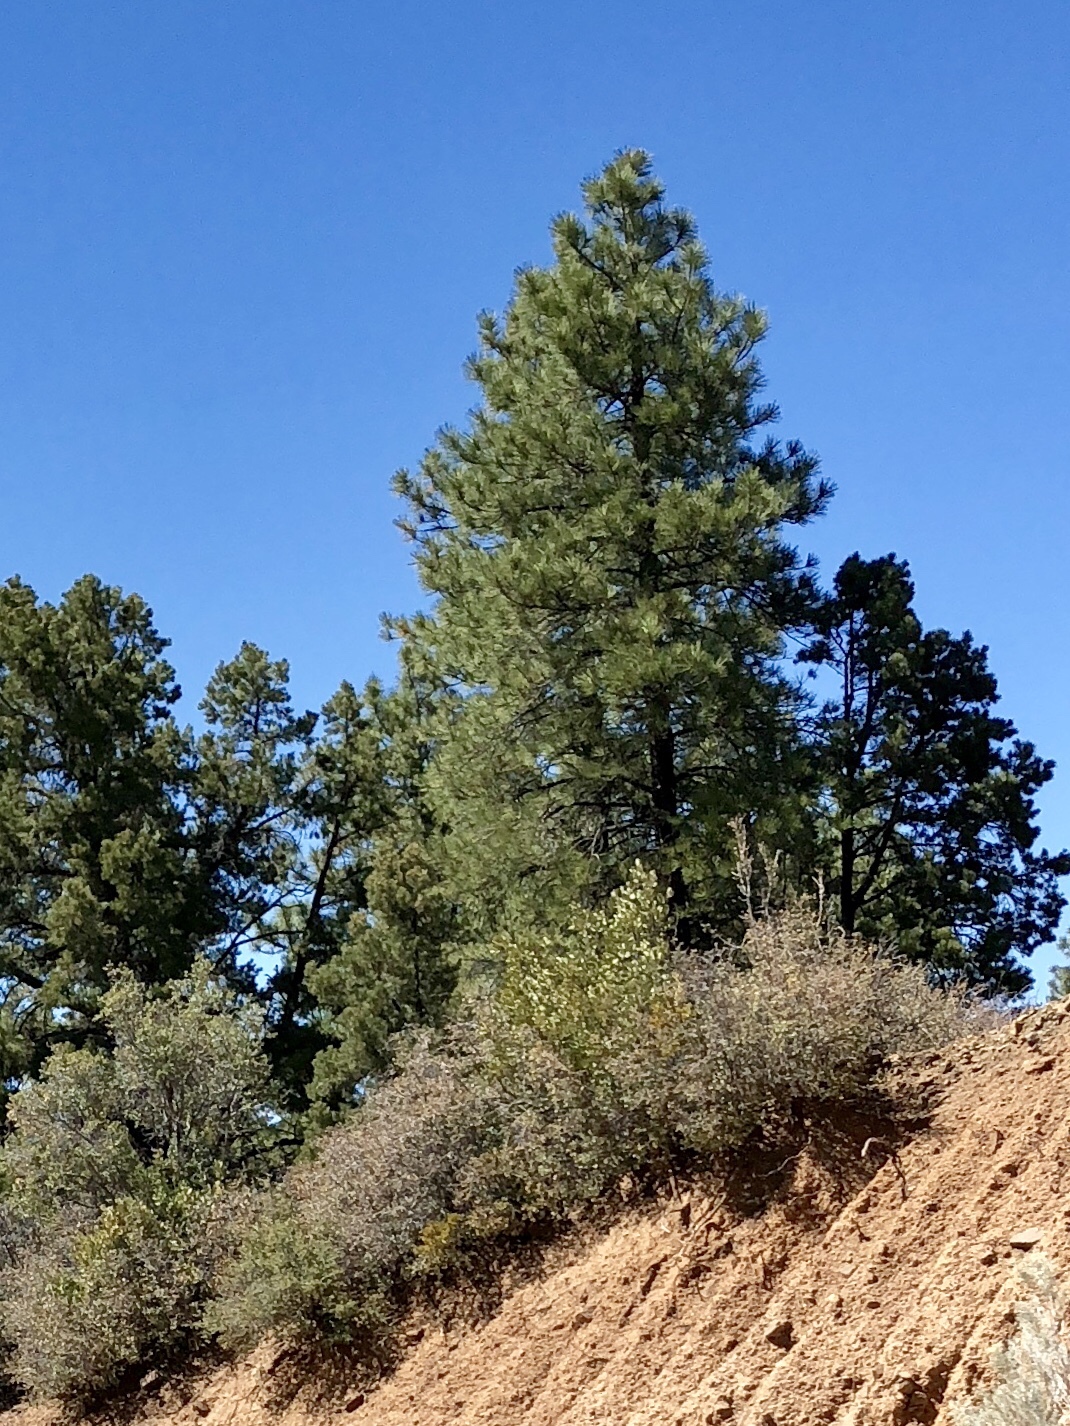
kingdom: Plantae
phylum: Tracheophyta
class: Pinopsida
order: Pinales
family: Pinaceae
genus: Pinus
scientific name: Pinus ponderosa
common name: Western yellow-pine
